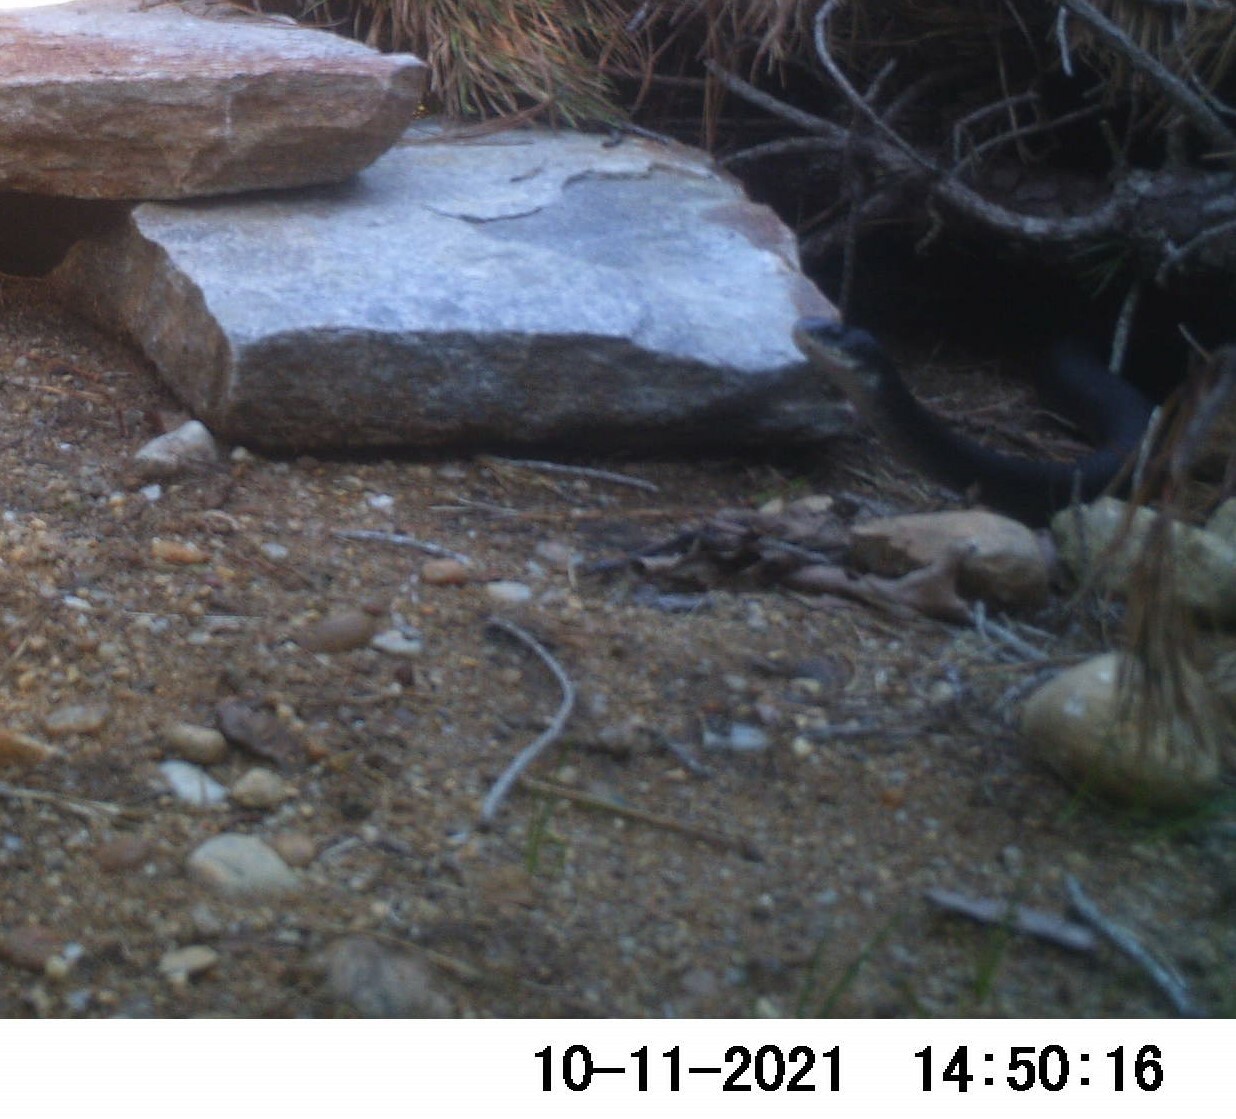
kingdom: Animalia
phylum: Chordata
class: Squamata
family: Colubridae
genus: Coluber
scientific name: Coluber constrictor
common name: Eastern racer
